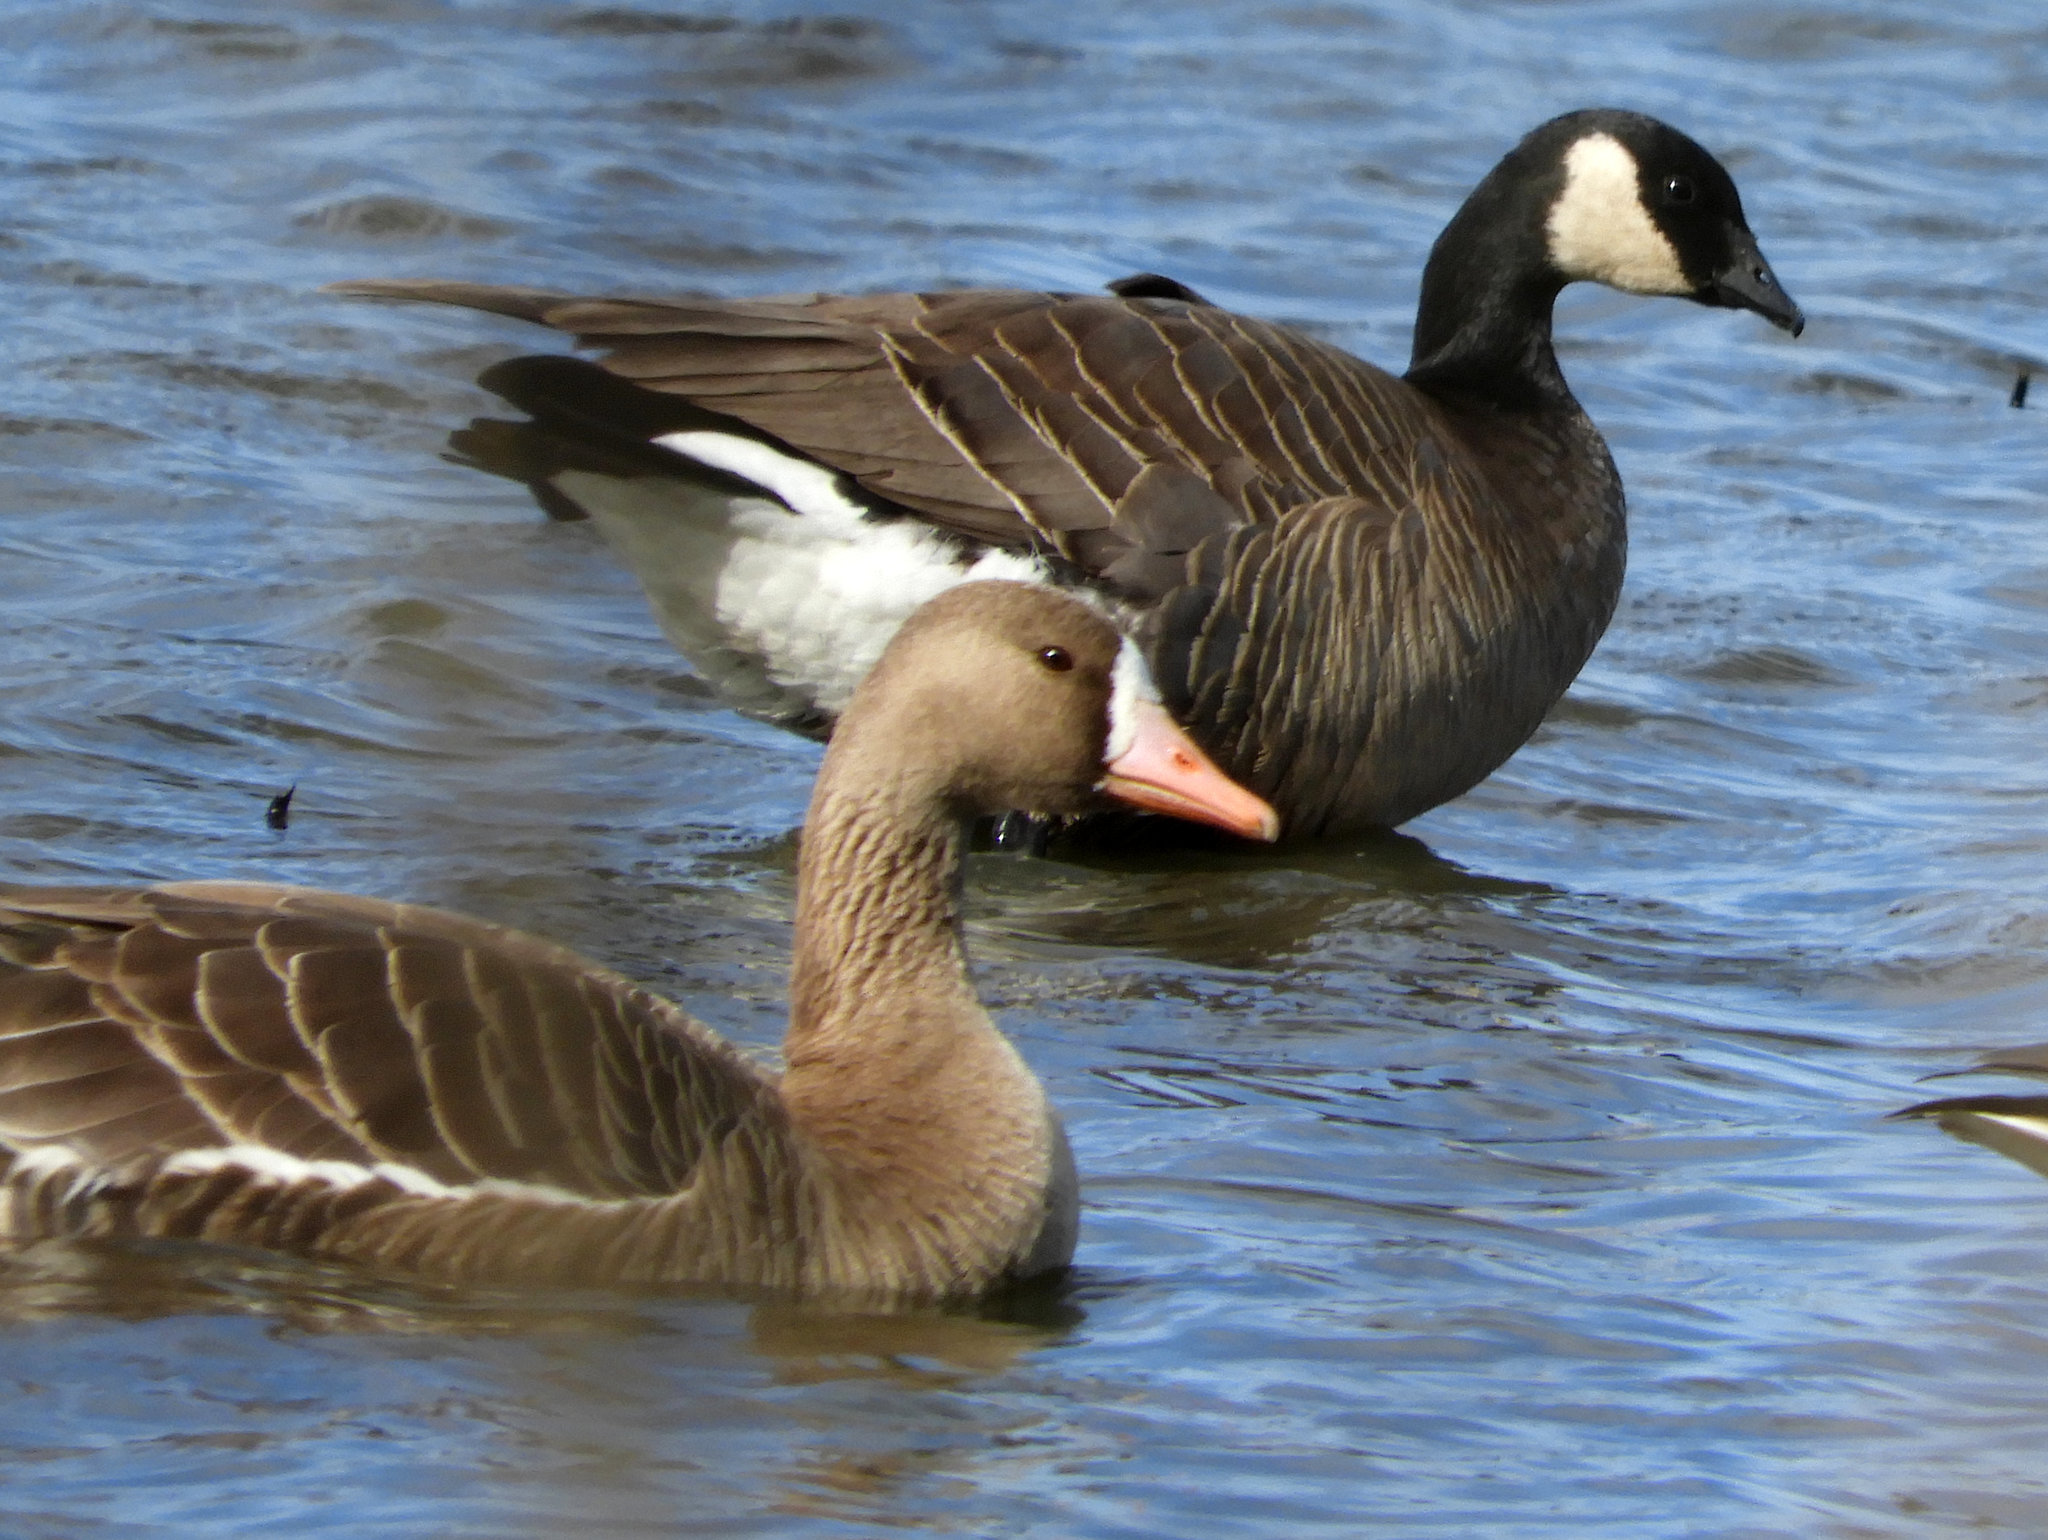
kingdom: Animalia
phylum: Chordata
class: Aves
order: Anseriformes
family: Anatidae
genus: Branta
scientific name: Branta hutchinsii
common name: Cackling goose
